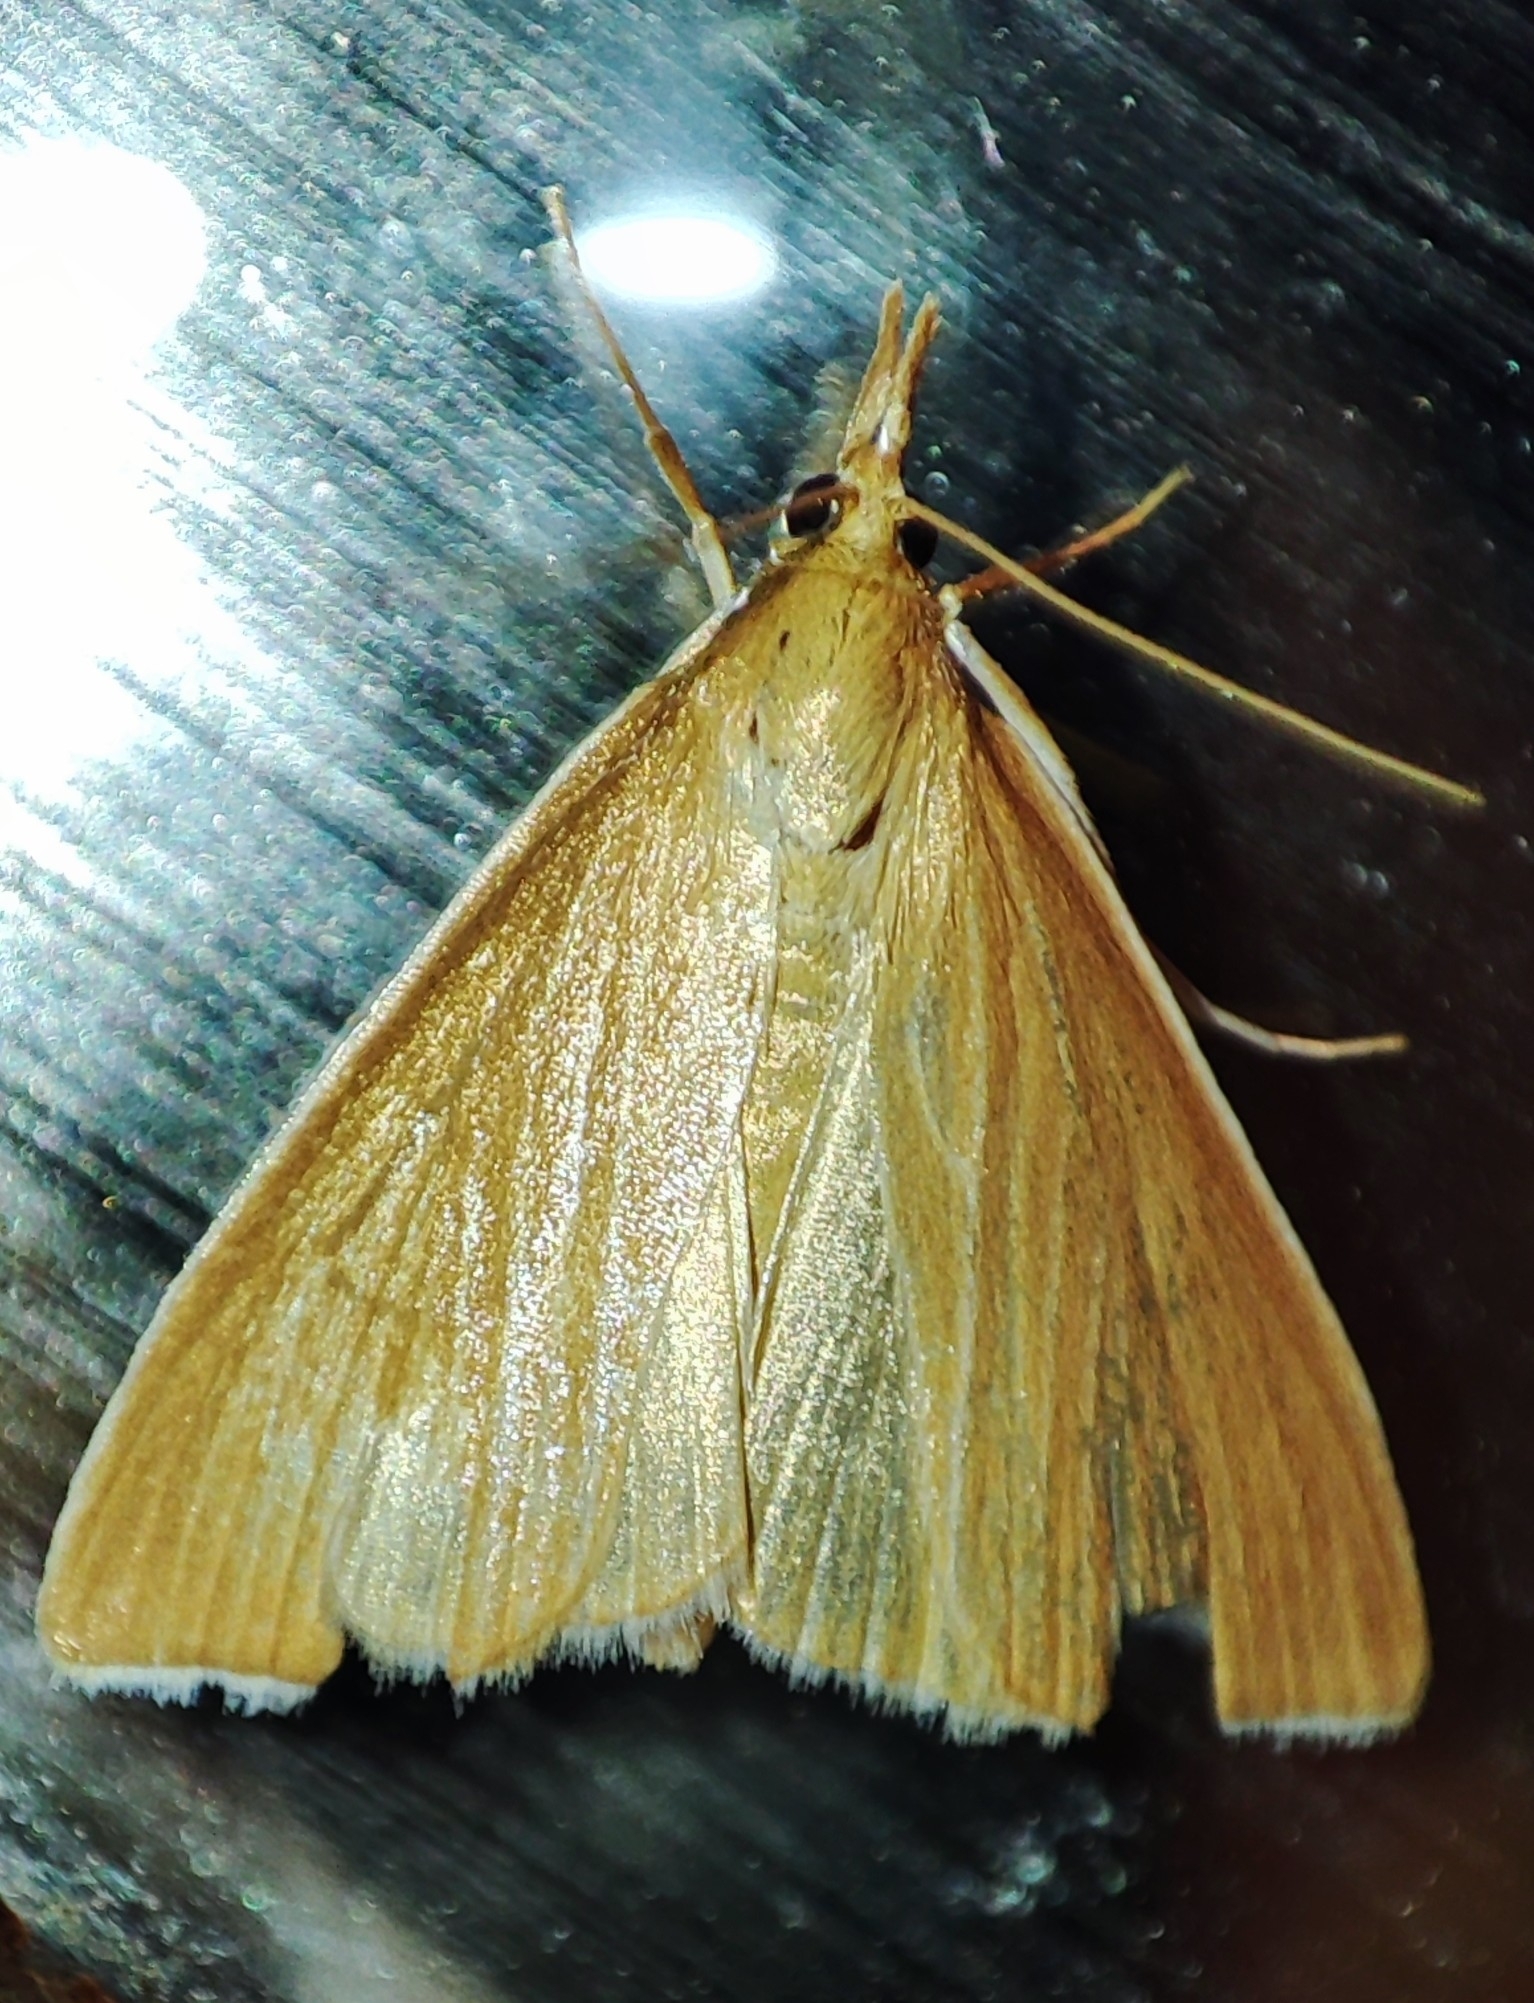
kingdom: Animalia
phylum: Arthropoda
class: Insecta
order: Lepidoptera
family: Crambidae
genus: Calamochrous
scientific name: Calamochrous Sclerocona acutella
